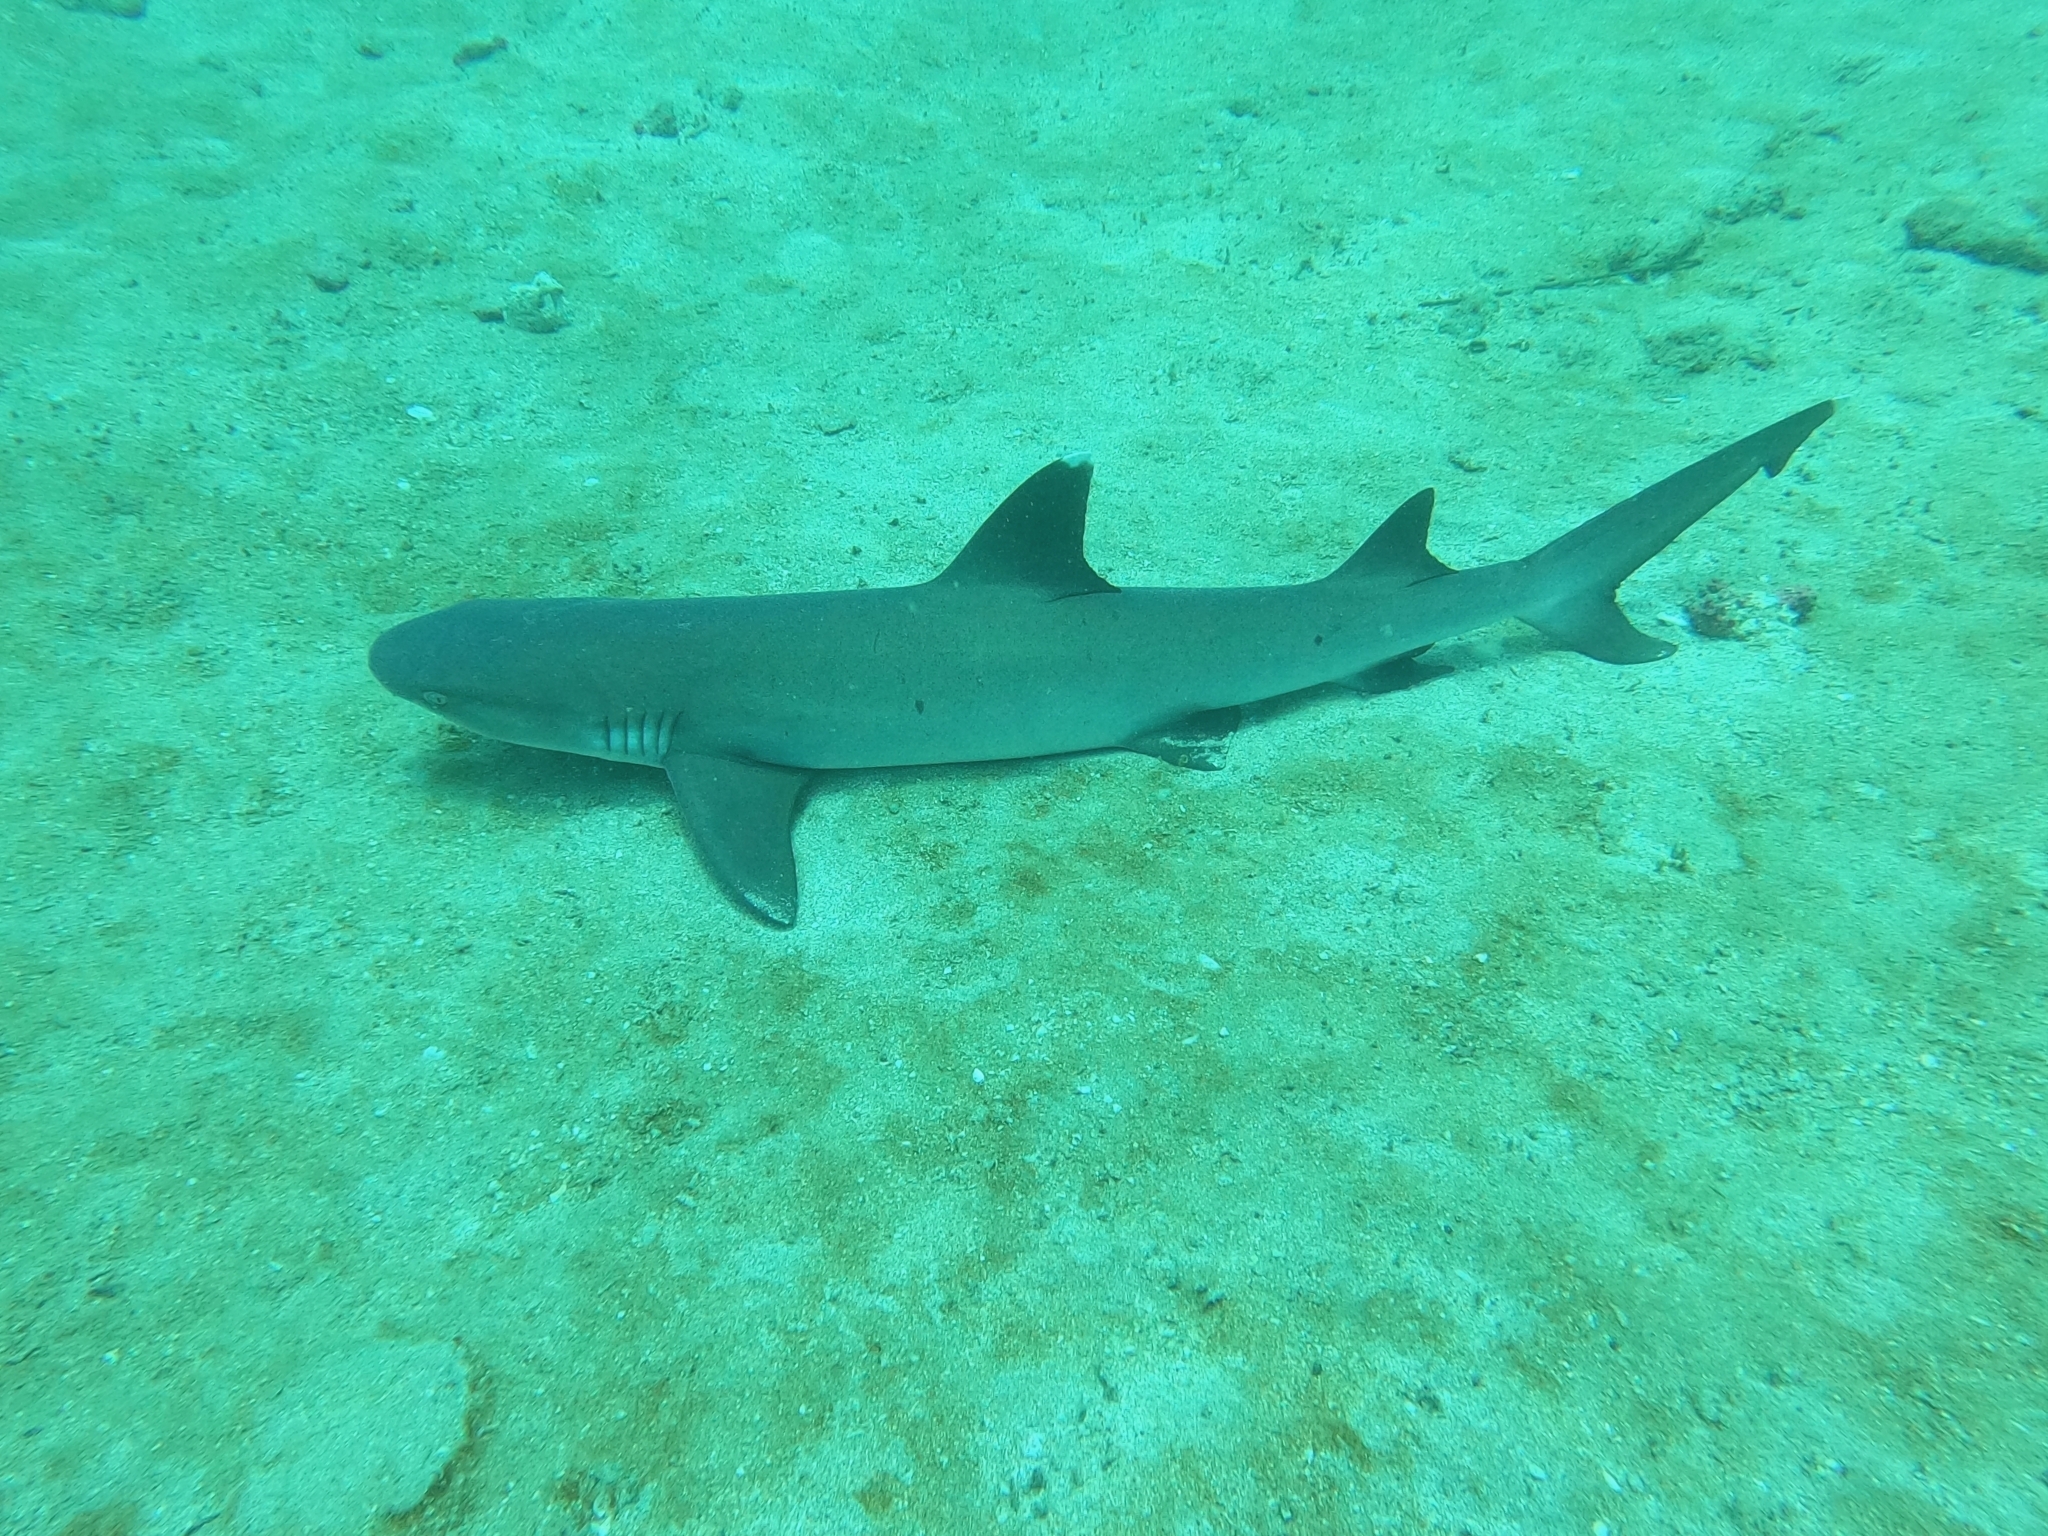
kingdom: Animalia
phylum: Chordata
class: Elasmobranchii
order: Carcharhiniformes
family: Carcharhinidae
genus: Triaenodon
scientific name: Triaenodon obesus
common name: Whitetip reef shark
